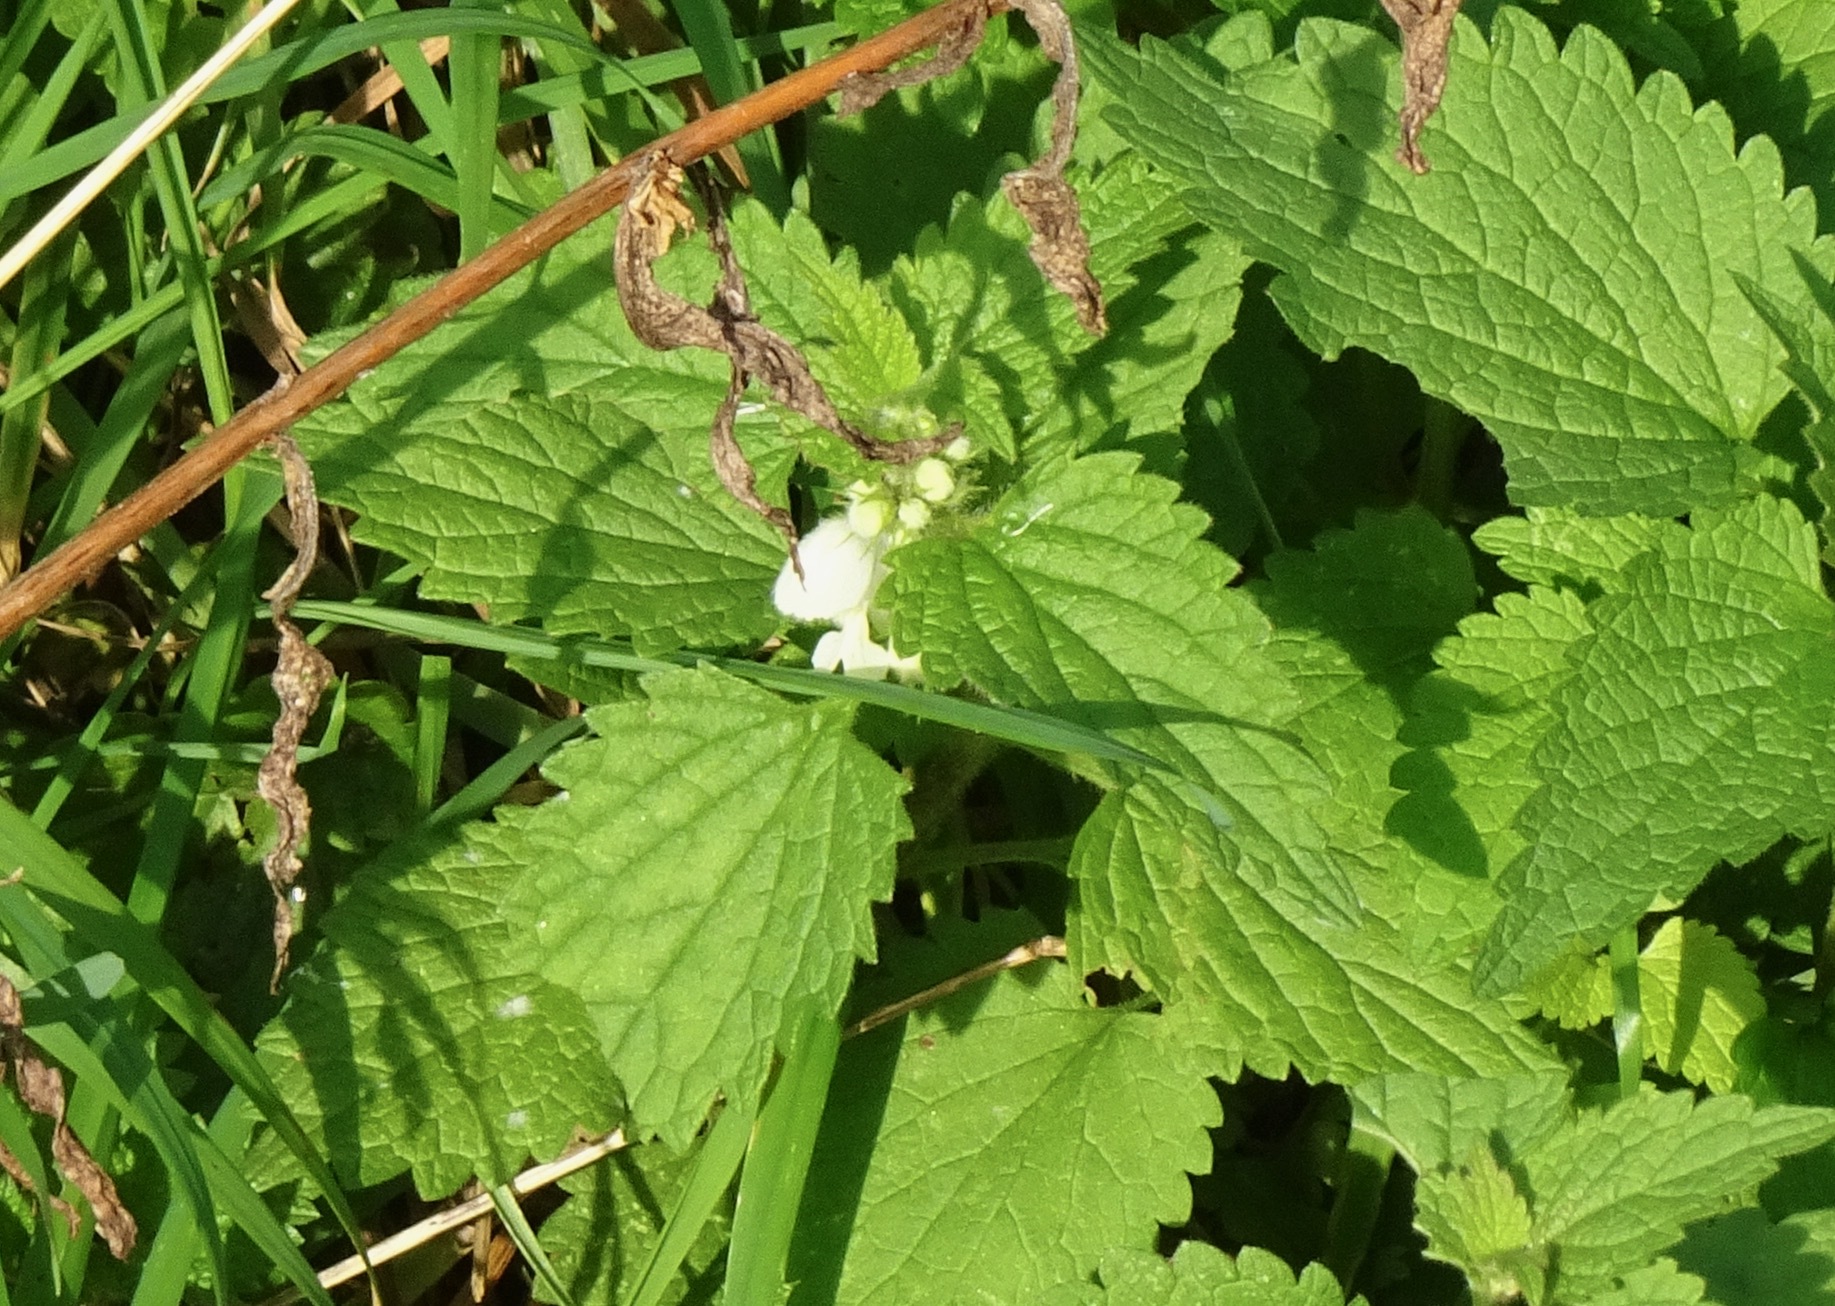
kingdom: Plantae
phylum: Tracheophyta
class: Magnoliopsida
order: Lamiales
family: Lamiaceae
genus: Lamium
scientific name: Lamium album
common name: White dead-nettle
